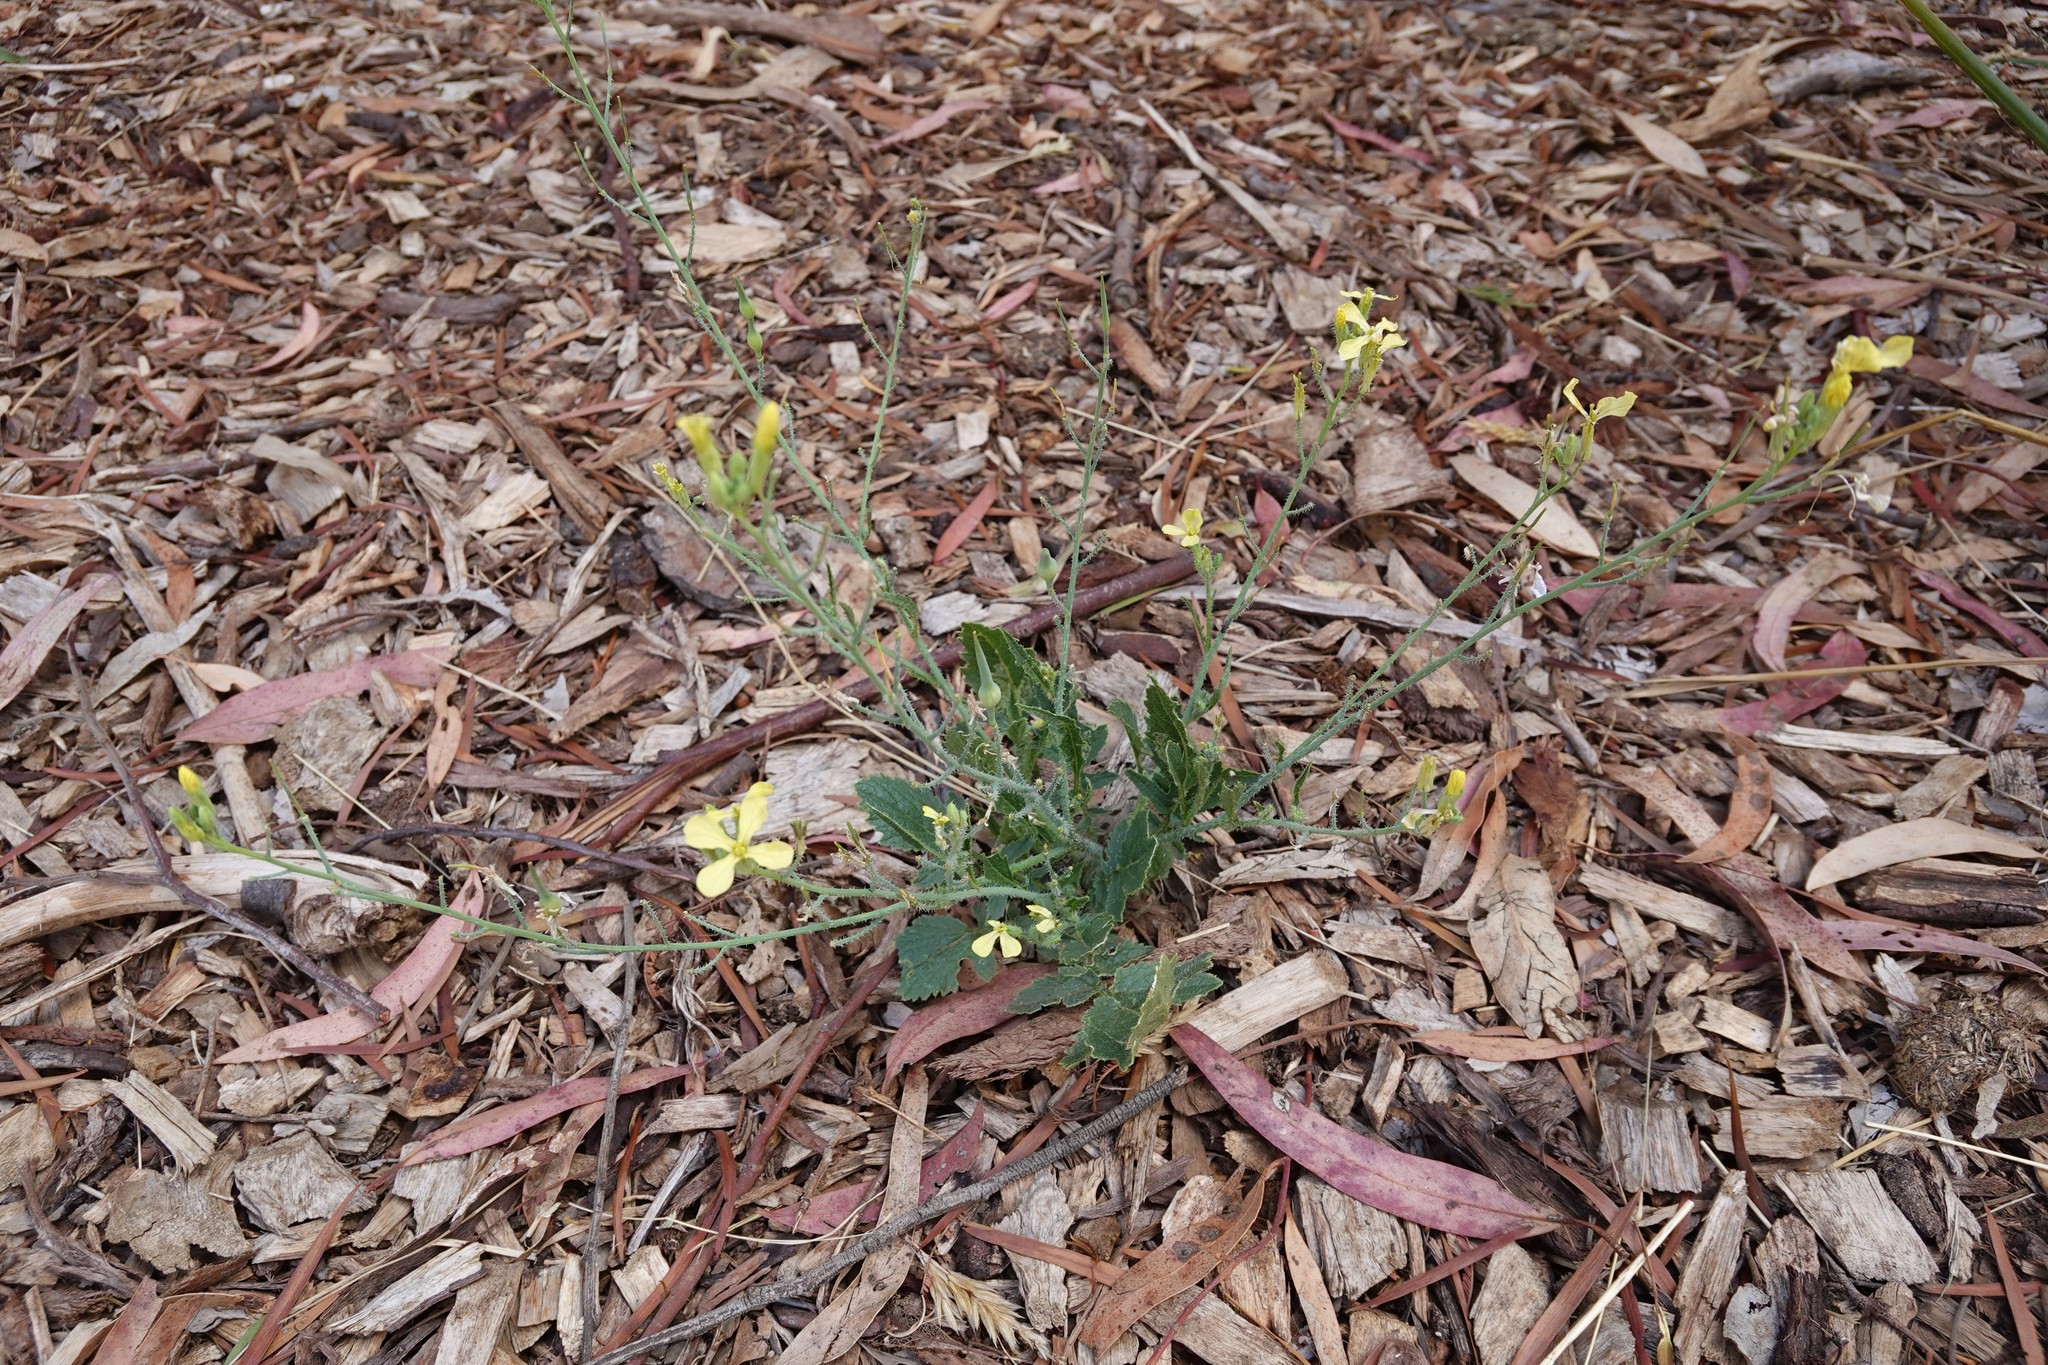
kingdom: Plantae
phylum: Tracheophyta
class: Magnoliopsida
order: Brassicales
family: Brassicaceae
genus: Raphanus
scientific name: Raphanus raphanistrum
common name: Wild radish
